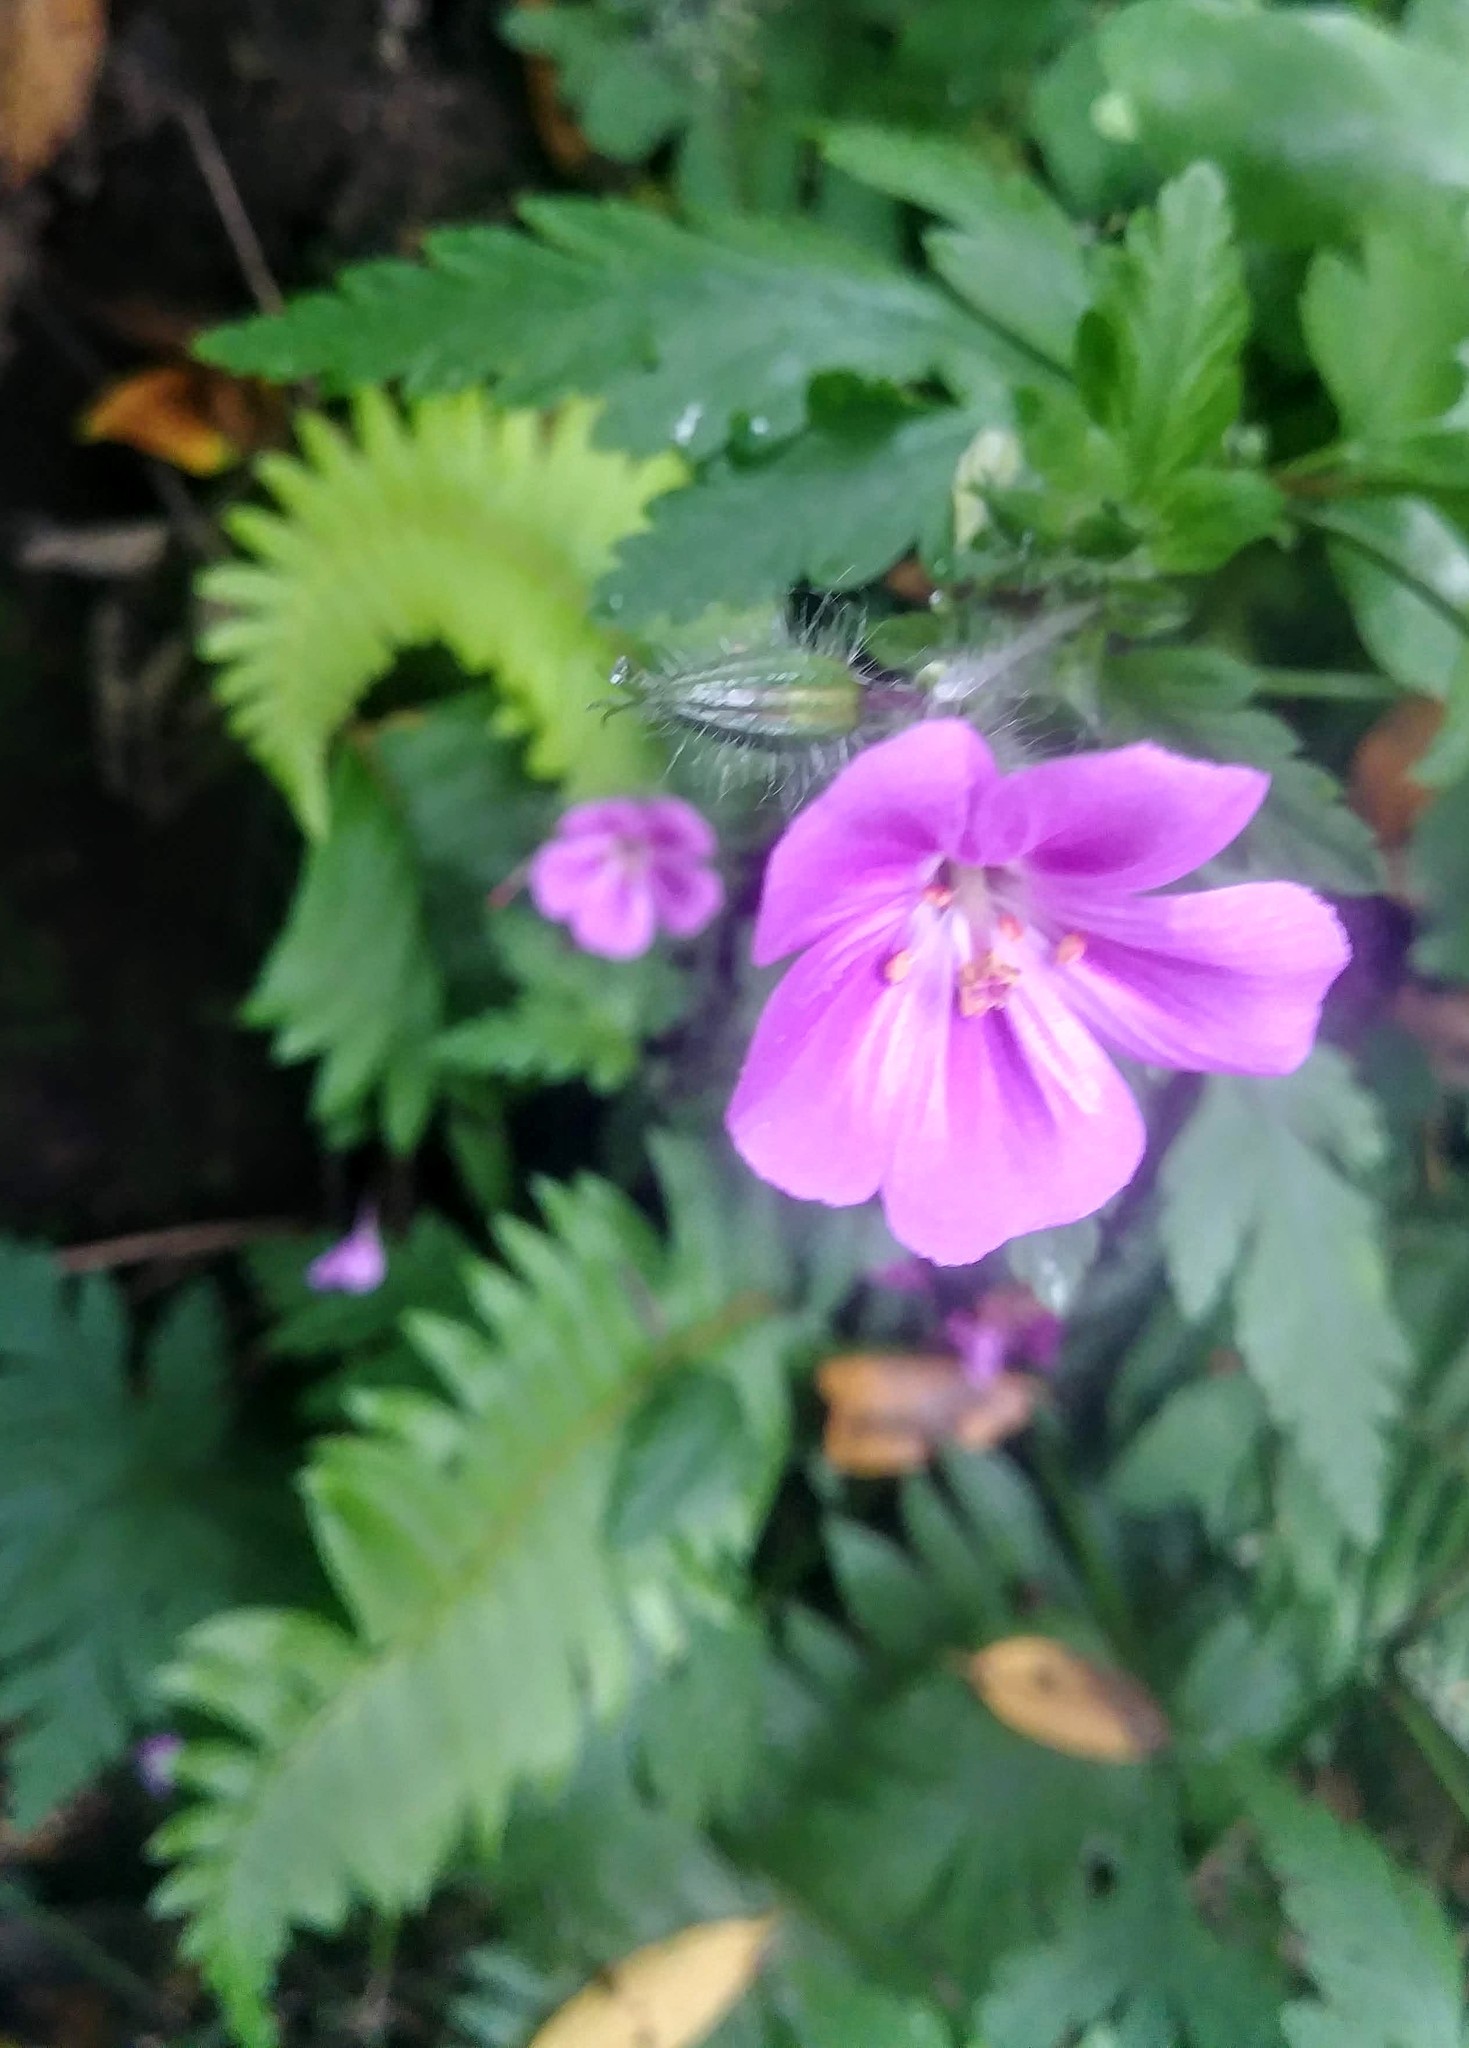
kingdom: Plantae
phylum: Tracheophyta
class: Magnoliopsida
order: Geraniales
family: Geraniaceae
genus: Geranium
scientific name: Geranium yeoi
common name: Greater herb robert
